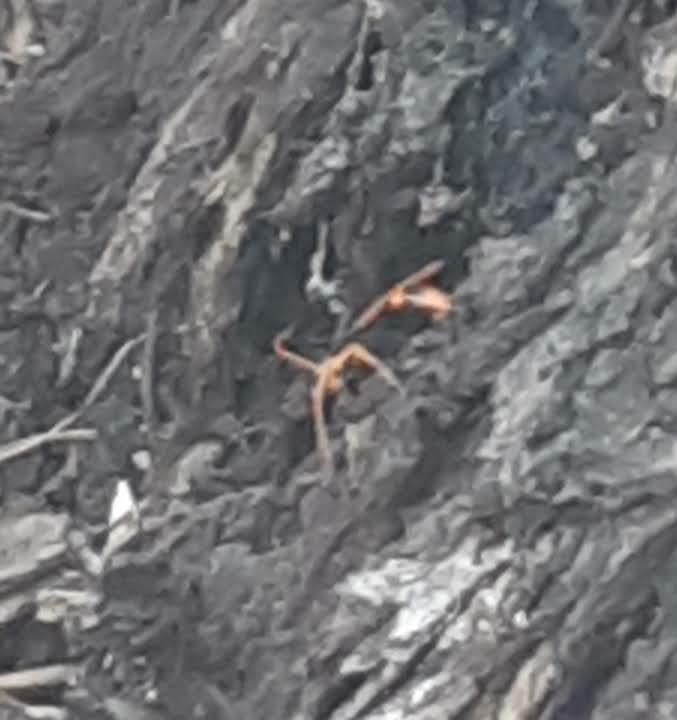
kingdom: Animalia
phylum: Arthropoda
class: Insecta
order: Hymenoptera
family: Pompilidae
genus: Cryptocheilus
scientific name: Cryptocheilus octomaculatus
